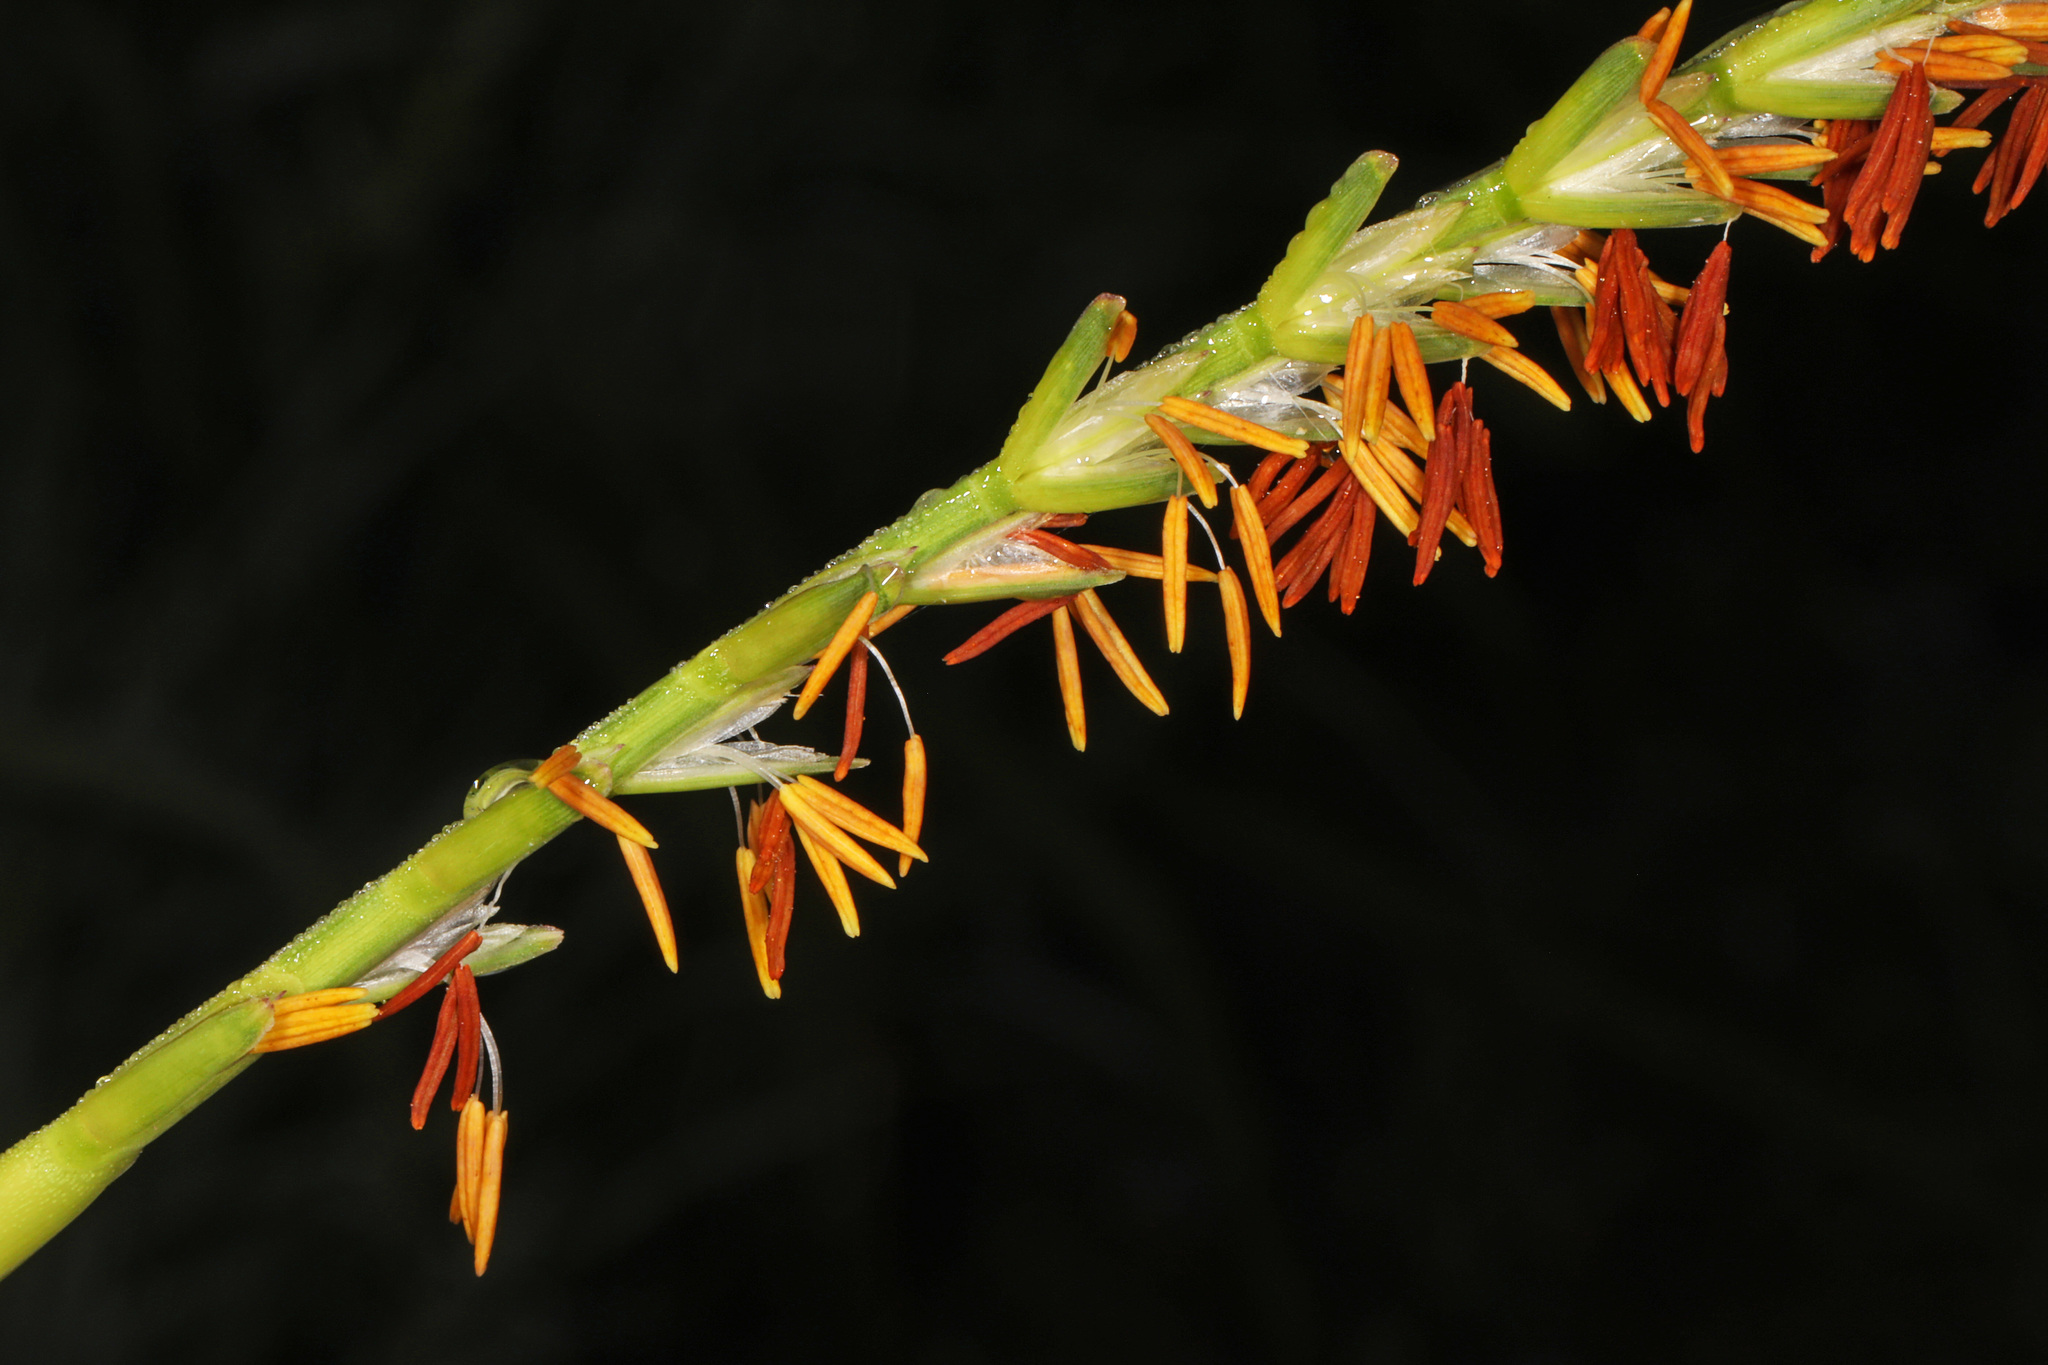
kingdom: Plantae
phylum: Tracheophyta
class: Liliopsida
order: Poales
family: Poaceae
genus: Tripsacum
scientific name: Tripsacum dactyloides
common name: Buffalo-grass
